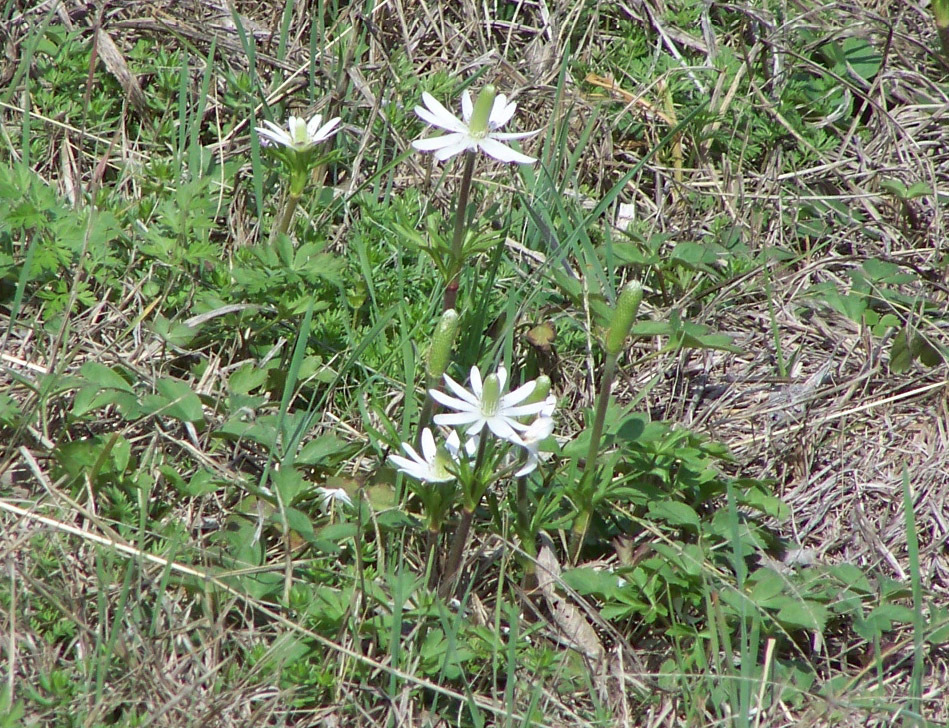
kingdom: Plantae
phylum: Tracheophyta
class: Magnoliopsida
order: Ranunculales
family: Ranunculaceae
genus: Anemone
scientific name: Anemone berlandieri
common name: Ten-petal anemone
